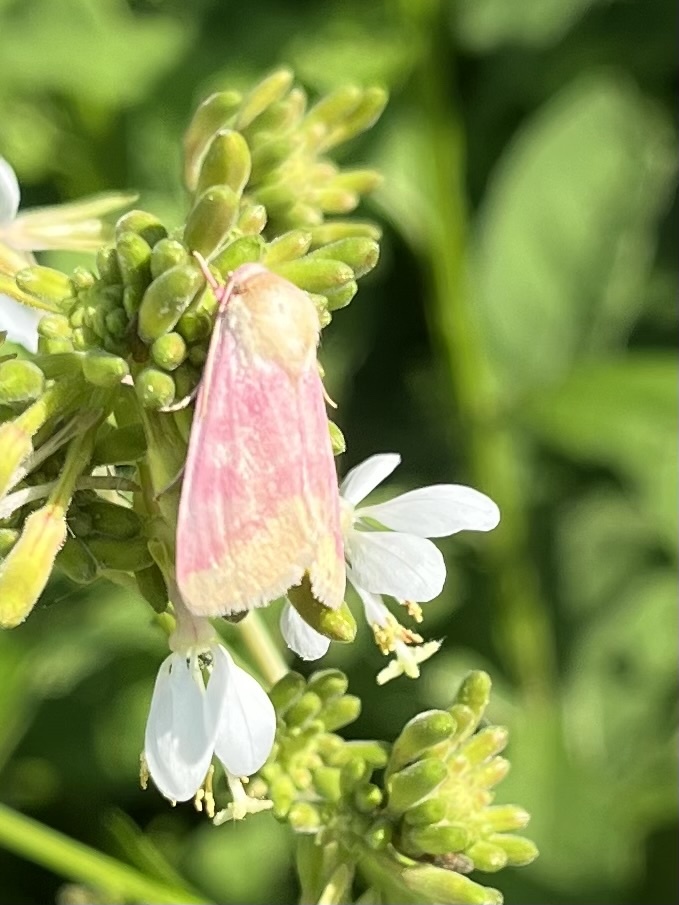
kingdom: Animalia
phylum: Arthropoda
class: Insecta
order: Lepidoptera
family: Noctuidae
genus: Schinia
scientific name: Schinia florida
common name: Primrose moth
